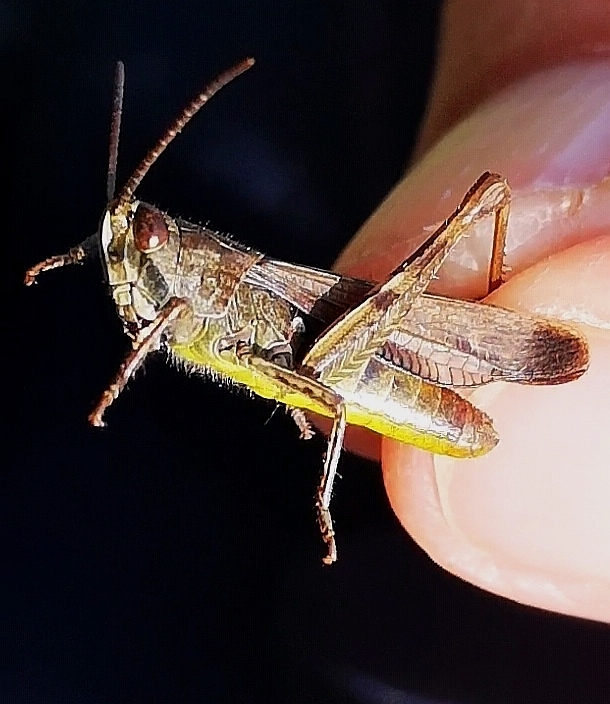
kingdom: Animalia
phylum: Arthropoda
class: Insecta
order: Orthoptera
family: Acrididae
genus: Chorthippus
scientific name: Chorthippus biguttulus
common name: Bow-winged grasshopper
